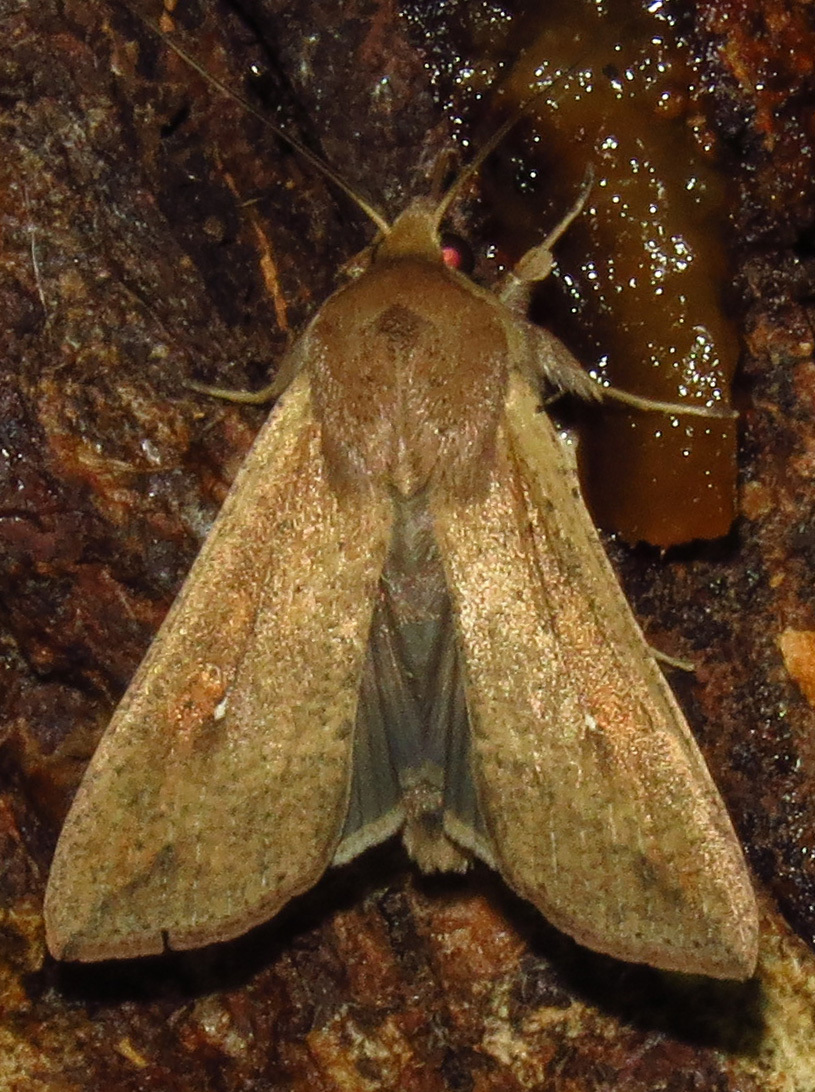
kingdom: Animalia
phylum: Arthropoda
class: Insecta
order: Lepidoptera
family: Noctuidae
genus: Mythimna
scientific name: Mythimna unipuncta
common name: White-speck
